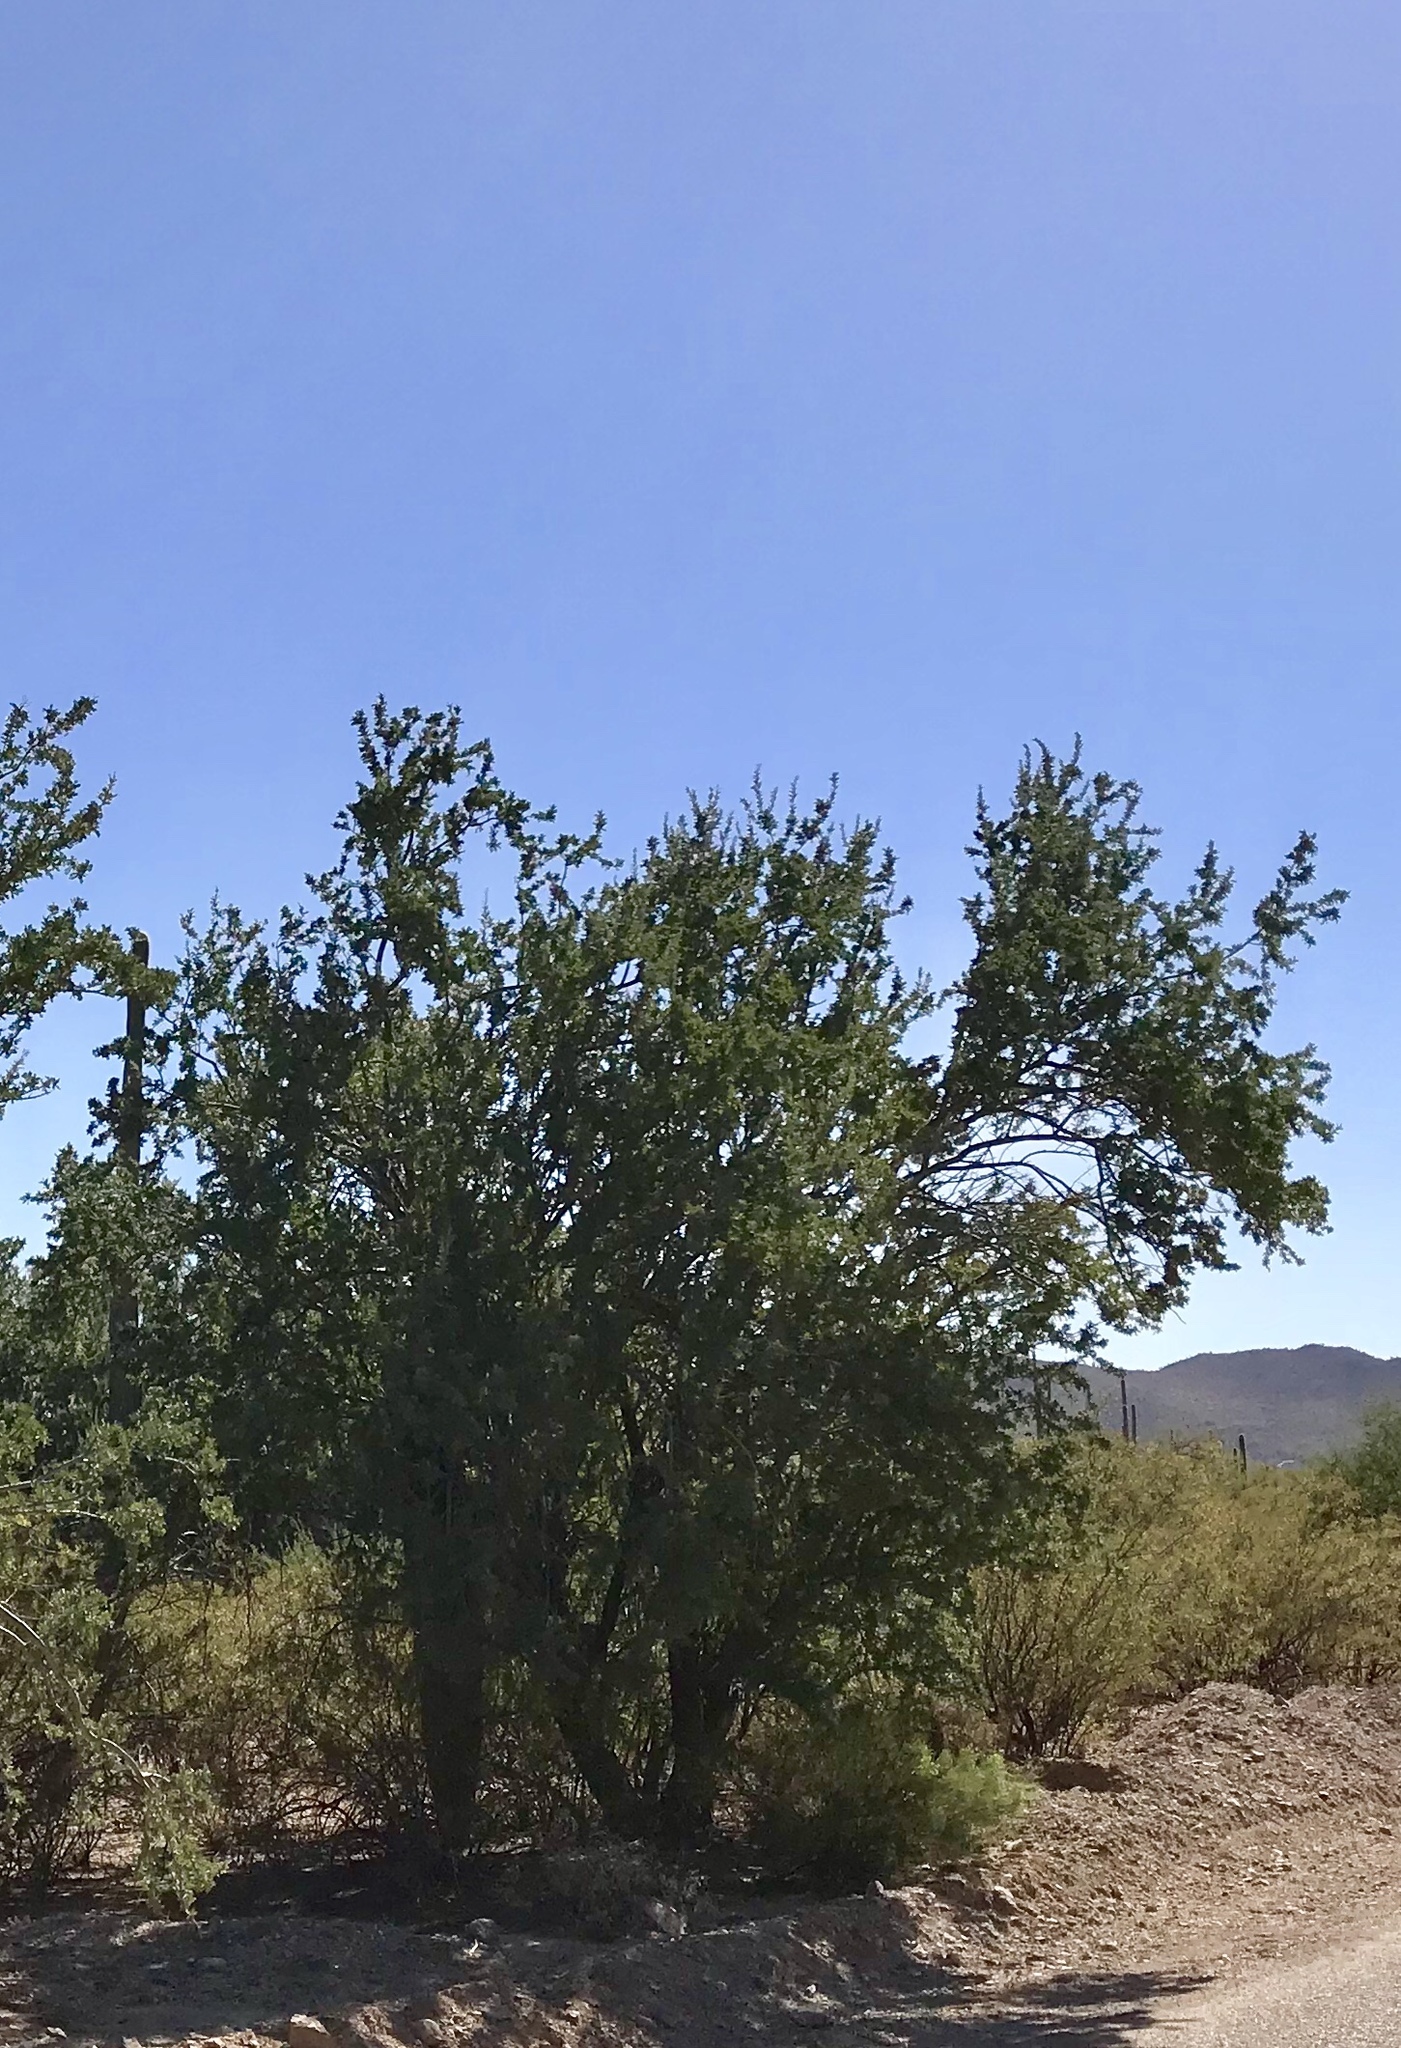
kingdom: Plantae
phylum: Tracheophyta
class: Magnoliopsida
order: Fabales
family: Fabaceae
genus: Olneya
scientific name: Olneya tesota
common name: Desert ironwood
